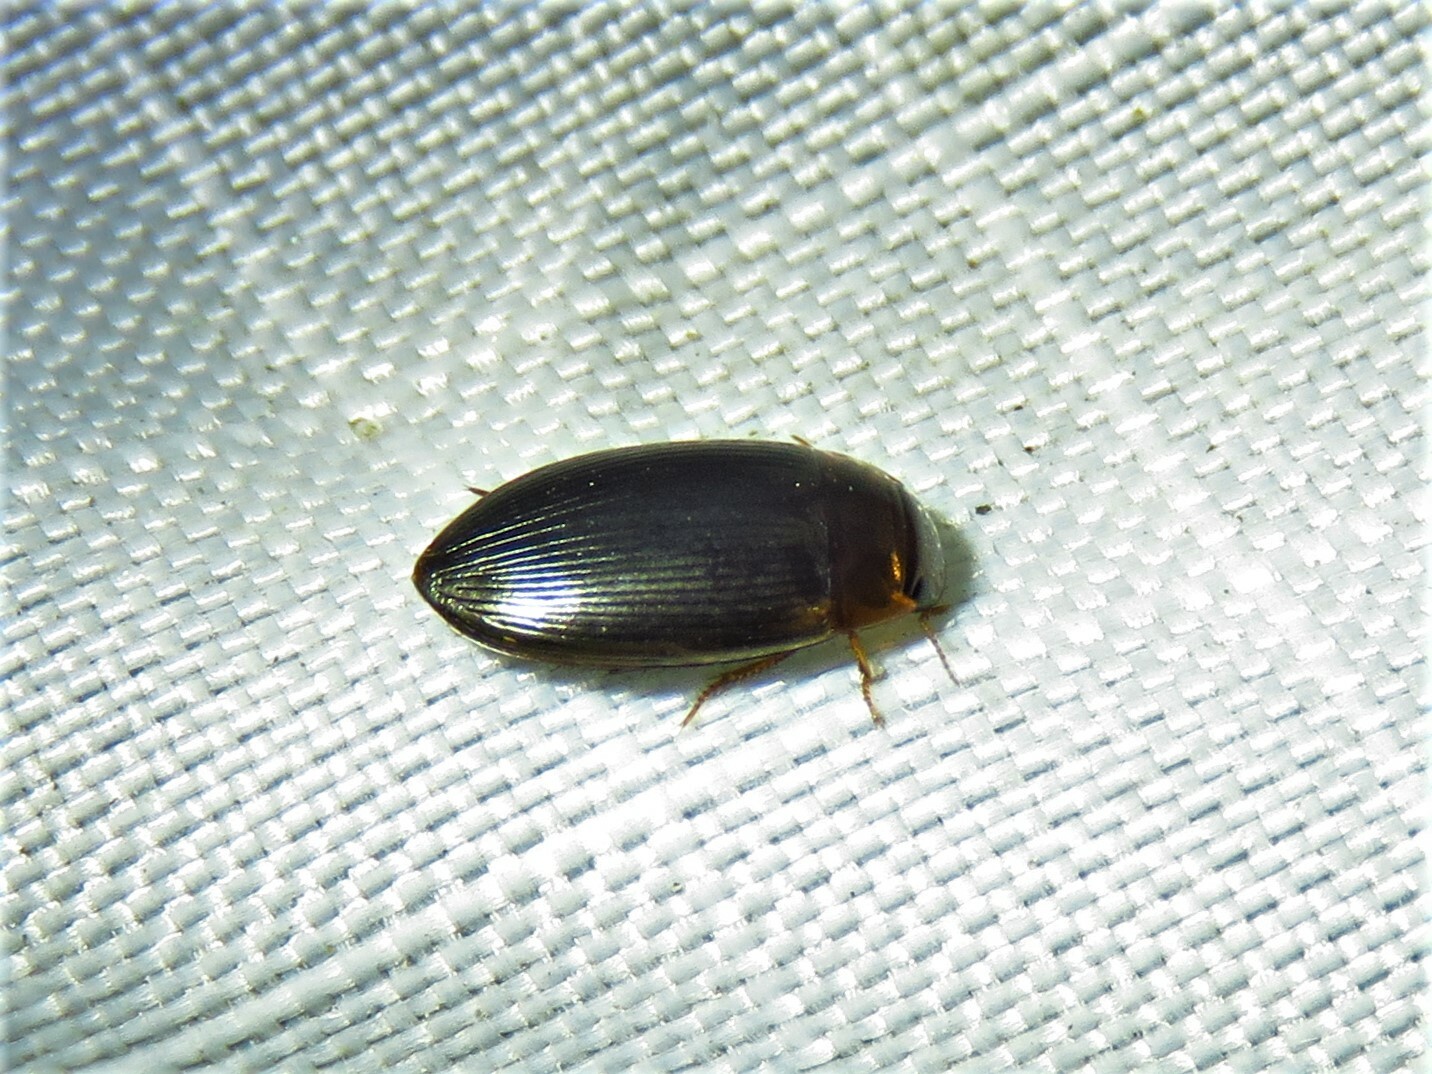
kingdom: Animalia
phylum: Arthropoda
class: Insecta
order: Coleoptera
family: Dytiscidae
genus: Copelatus
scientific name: Copelatus glyphicus
